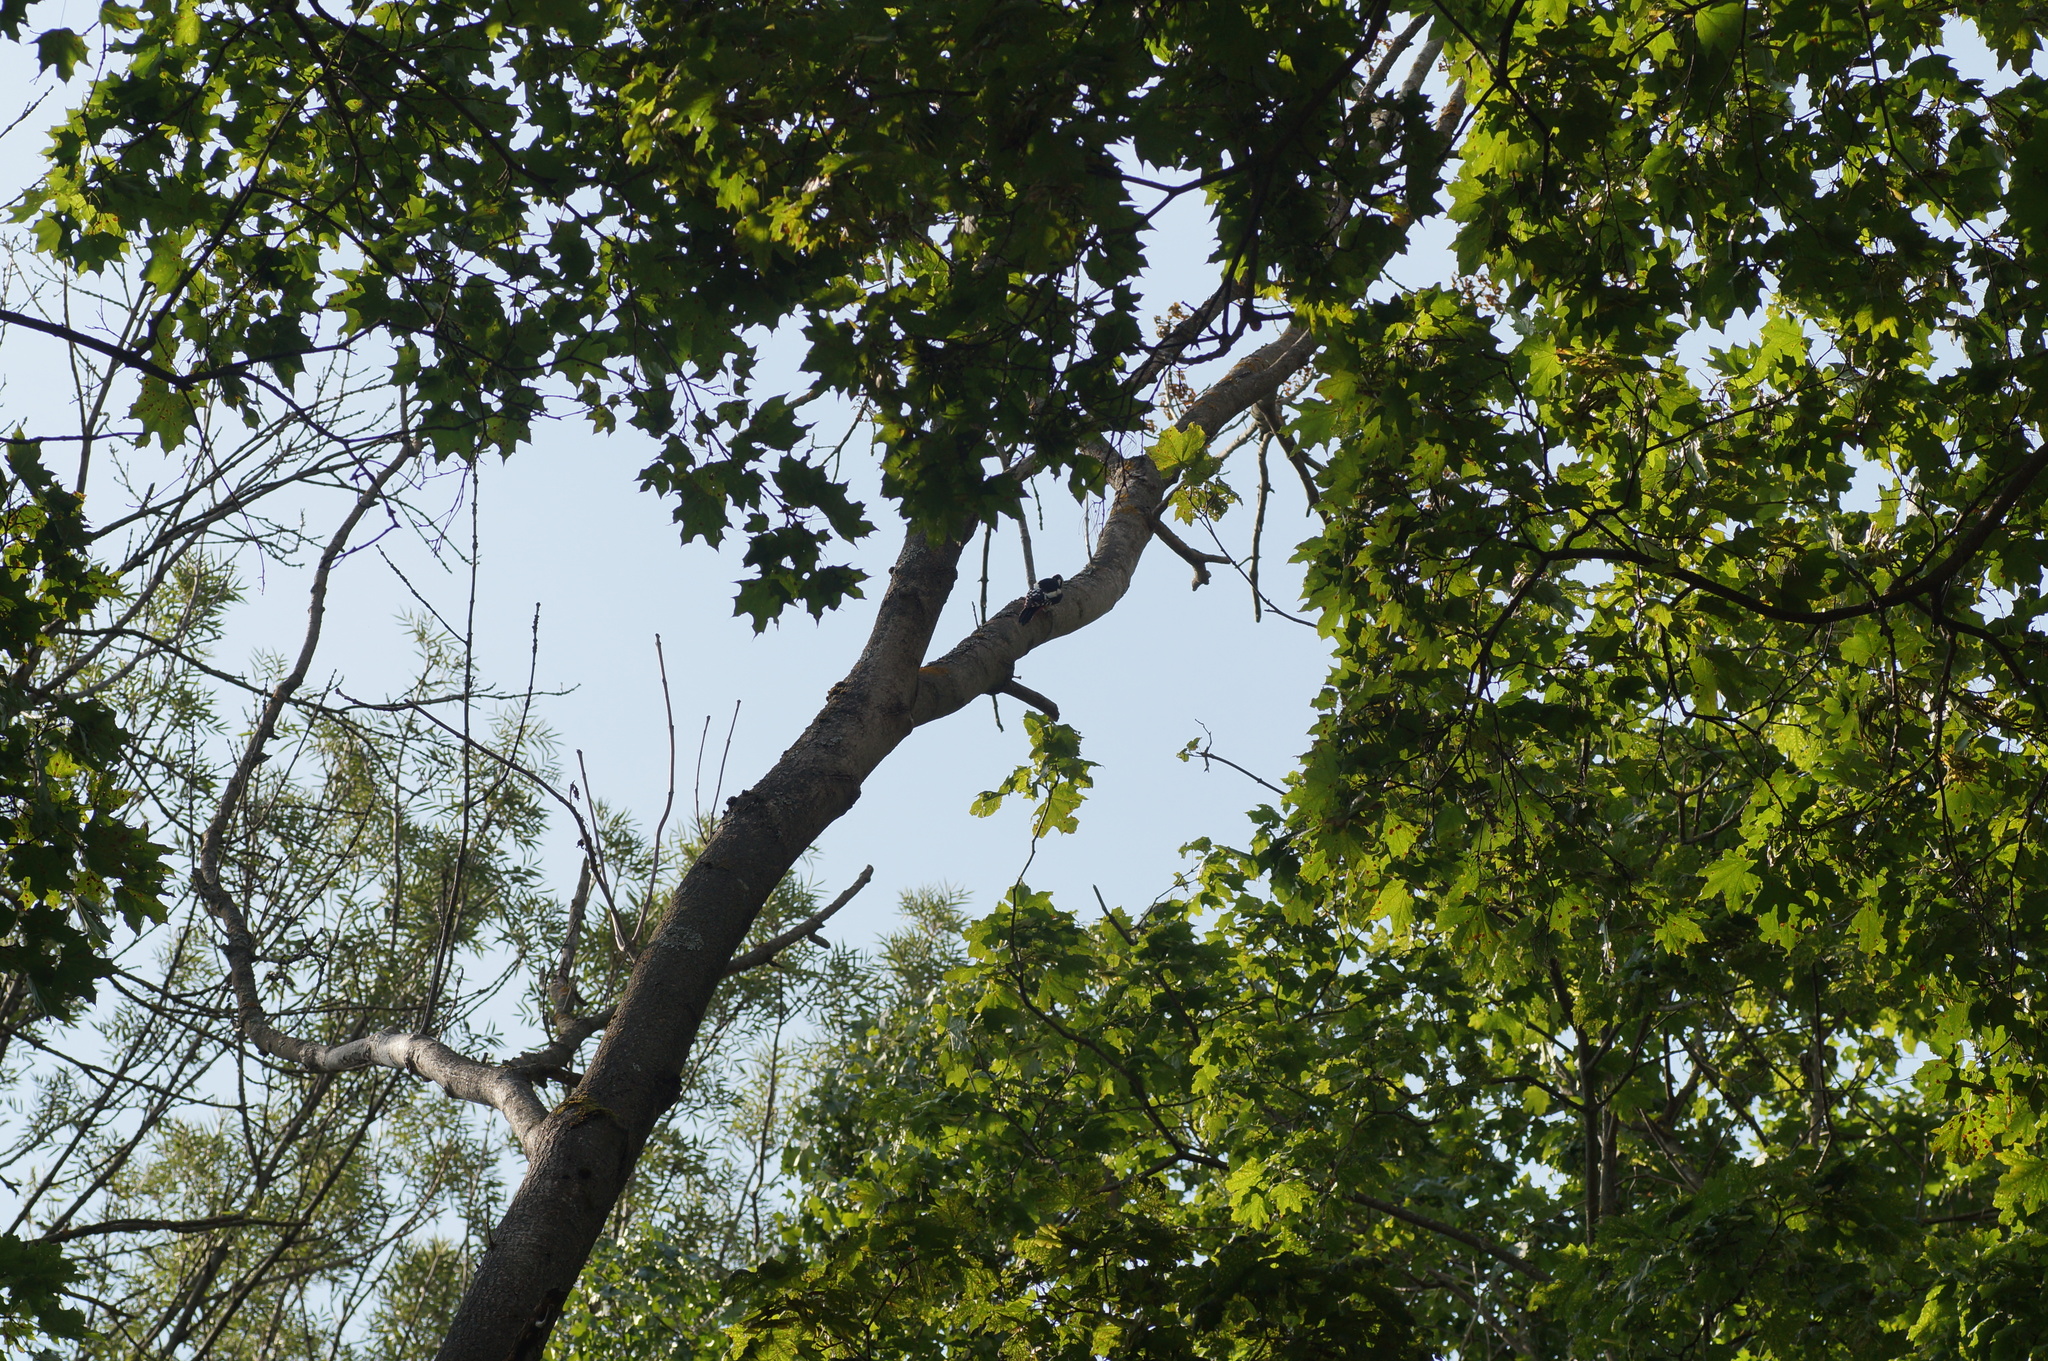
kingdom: Animalia
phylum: Chordata
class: Aves
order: Piciformes
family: Picidae
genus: Dendrocopos
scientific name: Dendrocopos major
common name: Great spotted woodpecker
